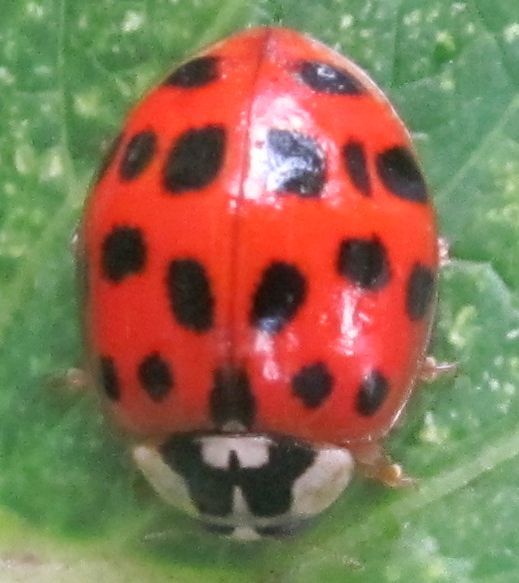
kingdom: Animalia
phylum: Arthropoda
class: Insecta
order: Coleoptera
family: Coccinellidae
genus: Harmonia
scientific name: Harmonia axyridis
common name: Harlequin ladybird
